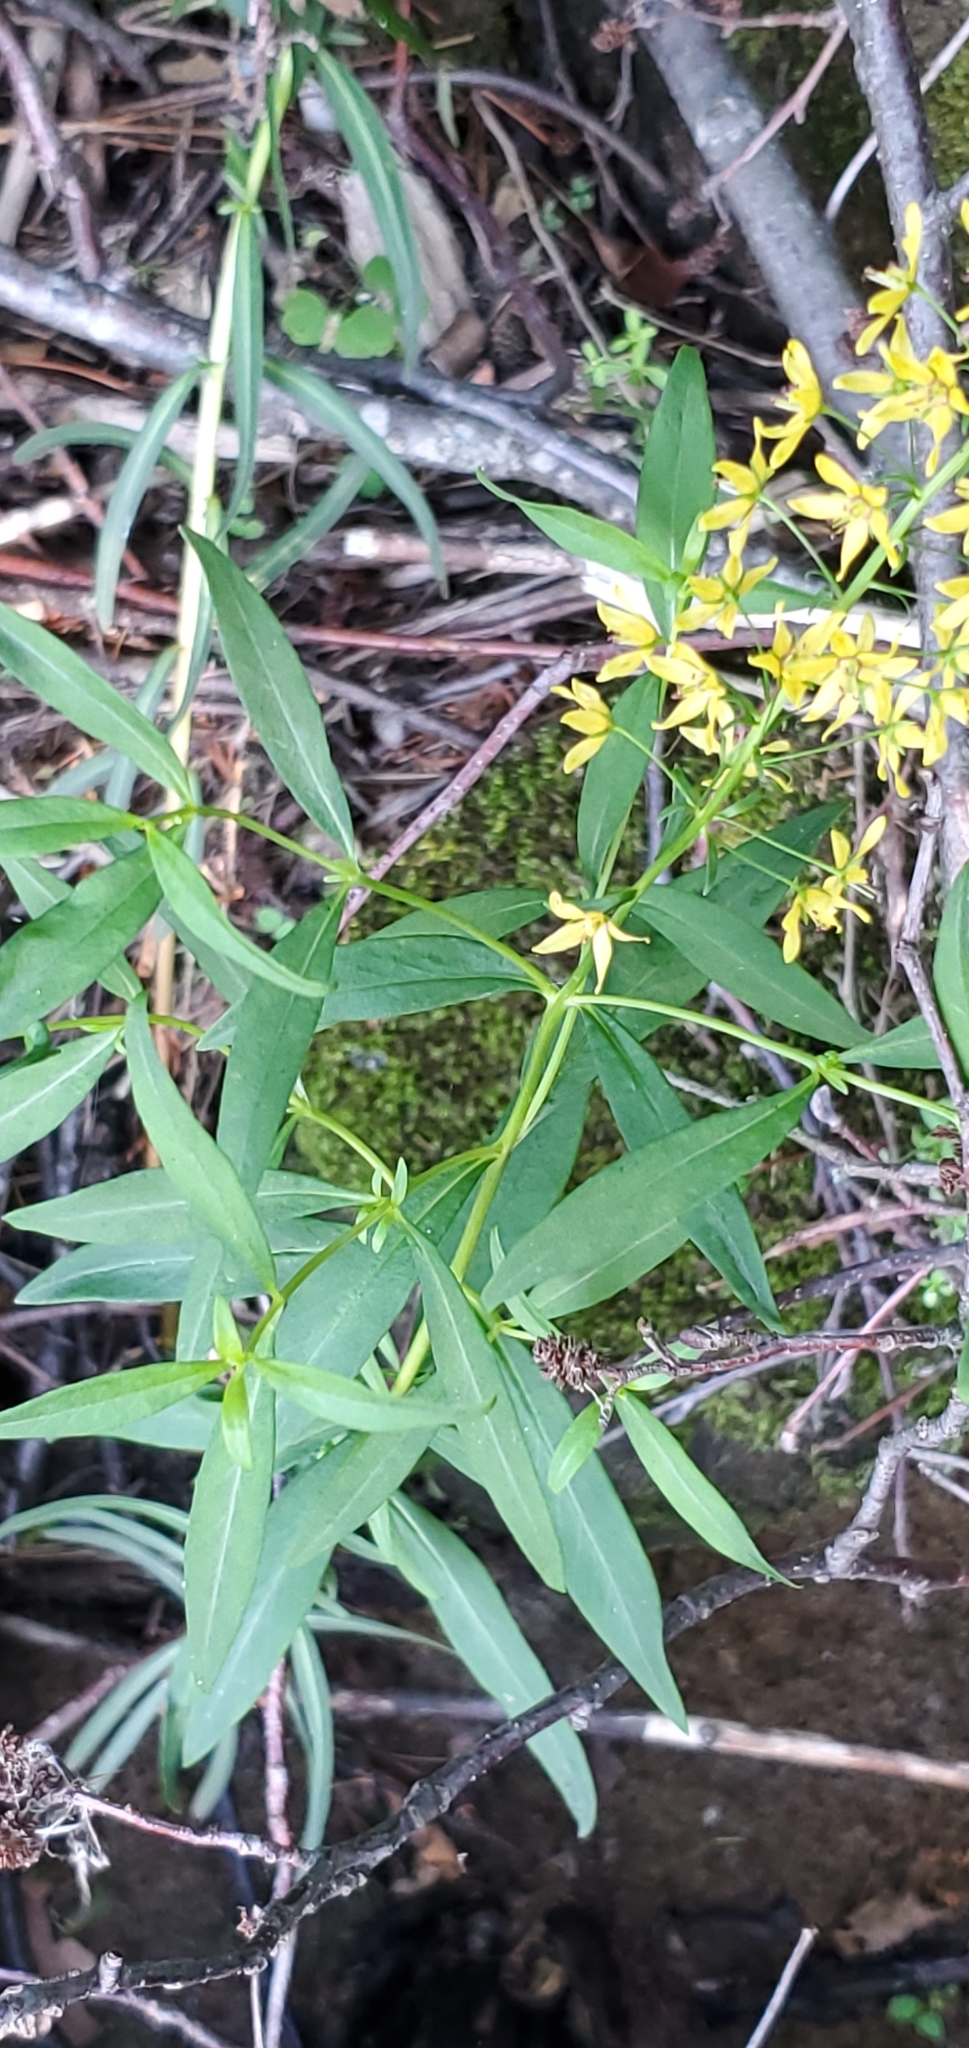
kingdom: Plantae
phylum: Tracheophyta
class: Magnoliopsida
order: Ericales
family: Primulaceae
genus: Lysimachia
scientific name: Lysimachia terrestris
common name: Lake loosestrife
